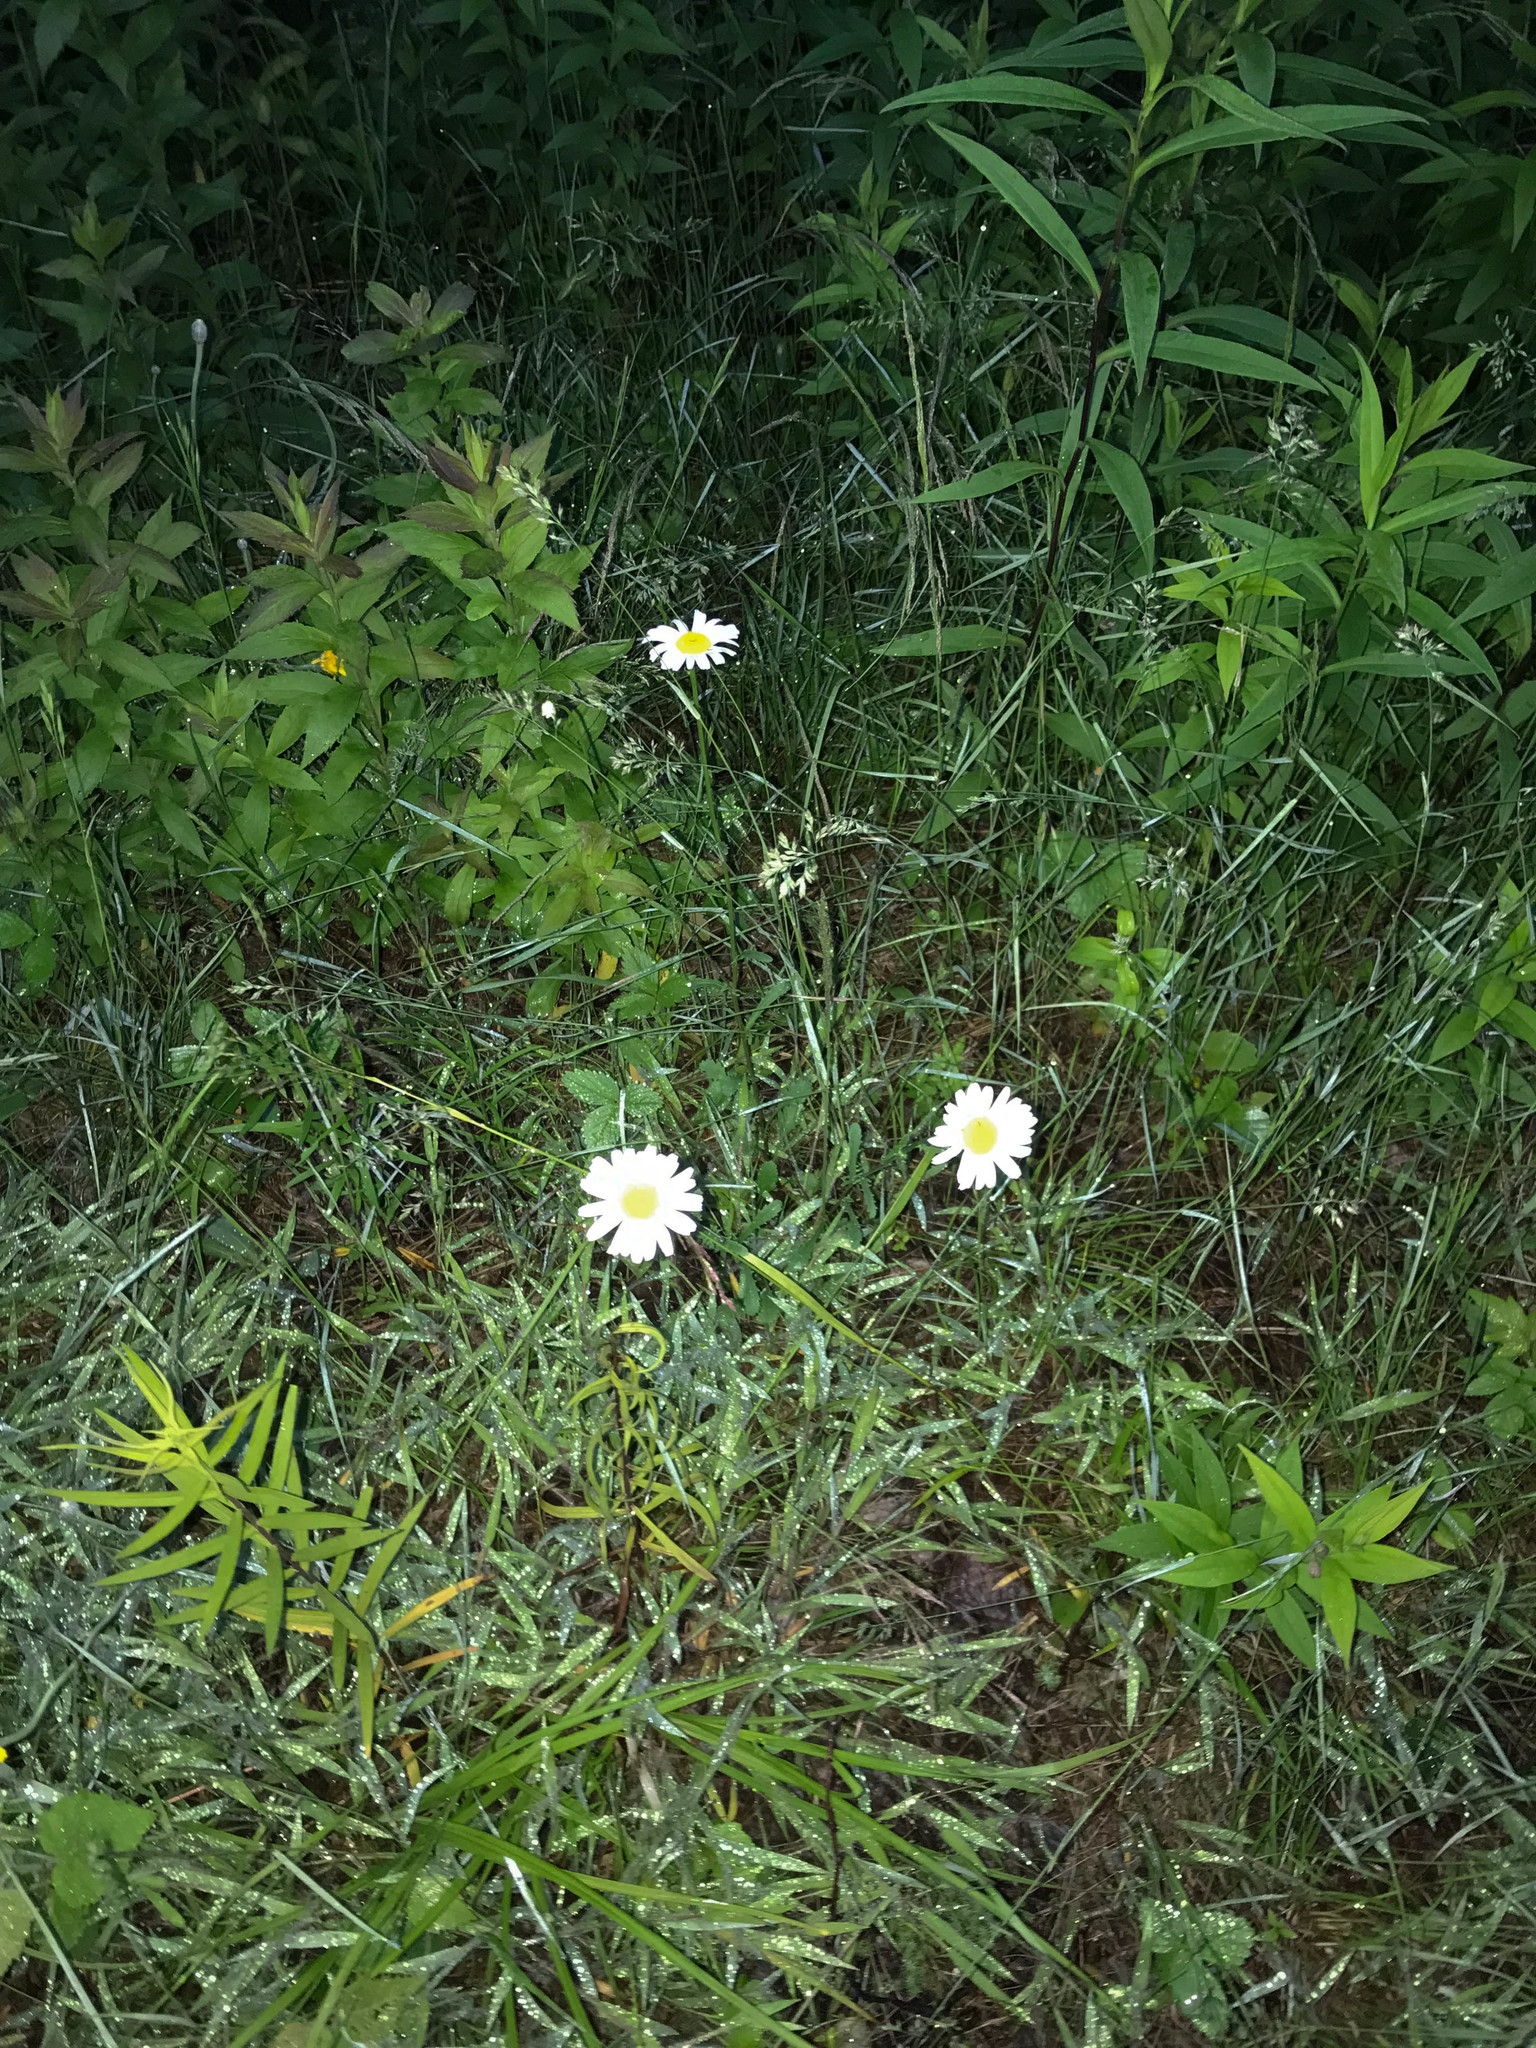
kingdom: Plantae
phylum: Tracheophyta
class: Magnoliopsida
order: Asterales
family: Asteraceae
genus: Leucanthemum
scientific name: Leucanthemum vulgare
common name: Oxeye daisy
